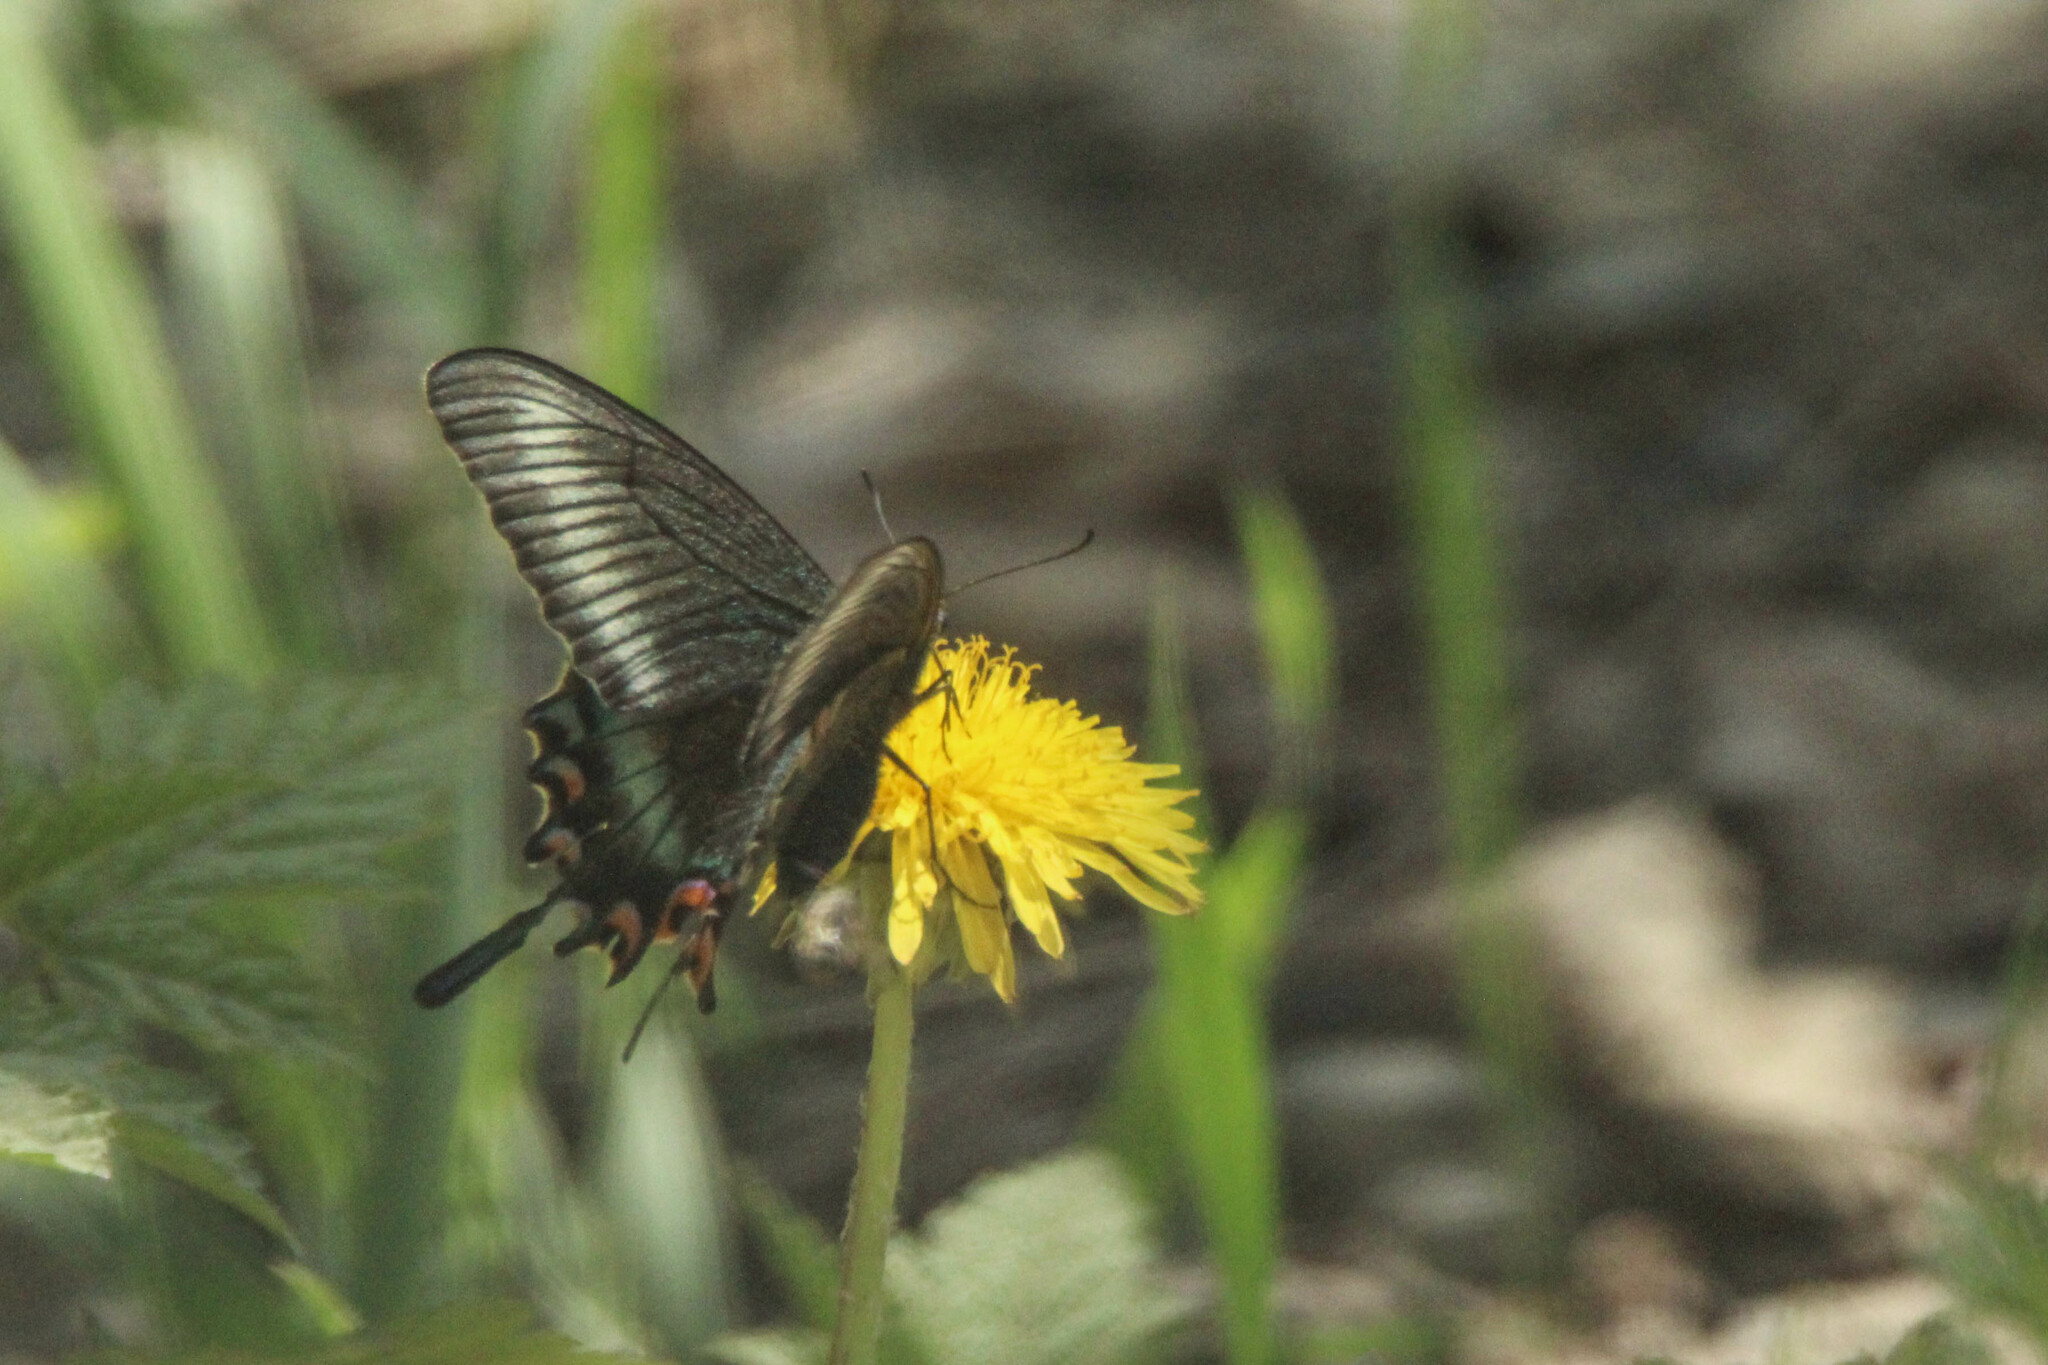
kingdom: Animalia
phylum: Arthropoda
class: Insecta
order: Lepidoptera
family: Papilionidae
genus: Papilio
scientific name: Papilio maackii
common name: Alpine black swallowtail
